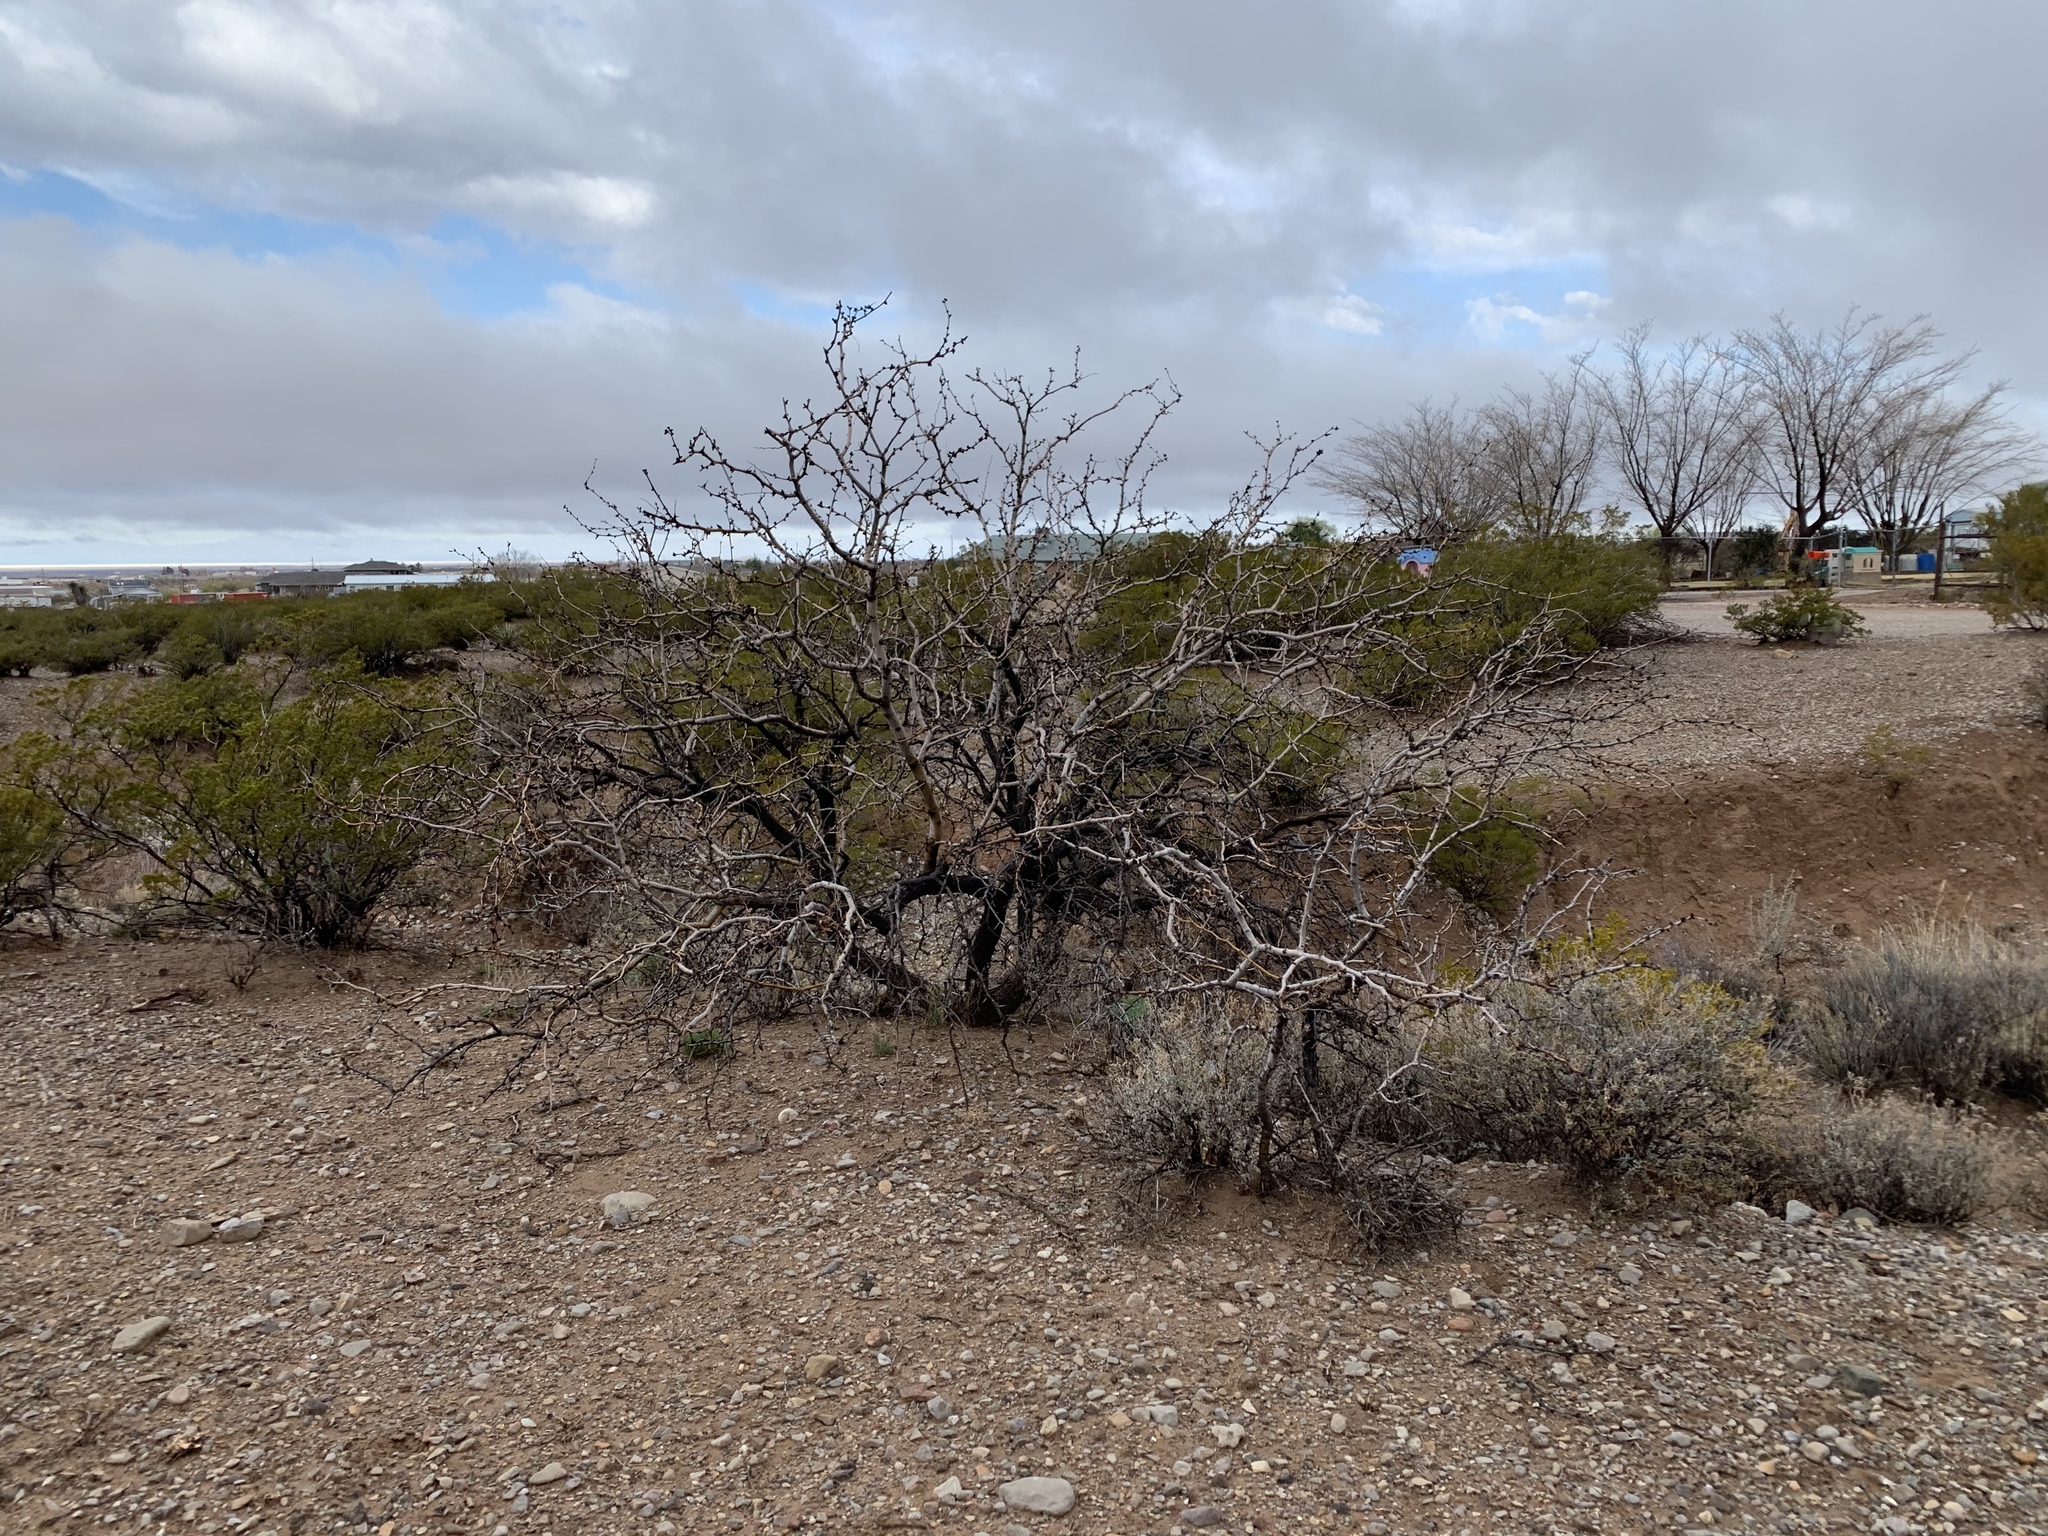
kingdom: Plantae
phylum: Tracheophyta
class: Magnoliopsida
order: Fabales
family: Fabaceae
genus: Prosopis
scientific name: Prosopis glandulosa
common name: Honey mesquite
